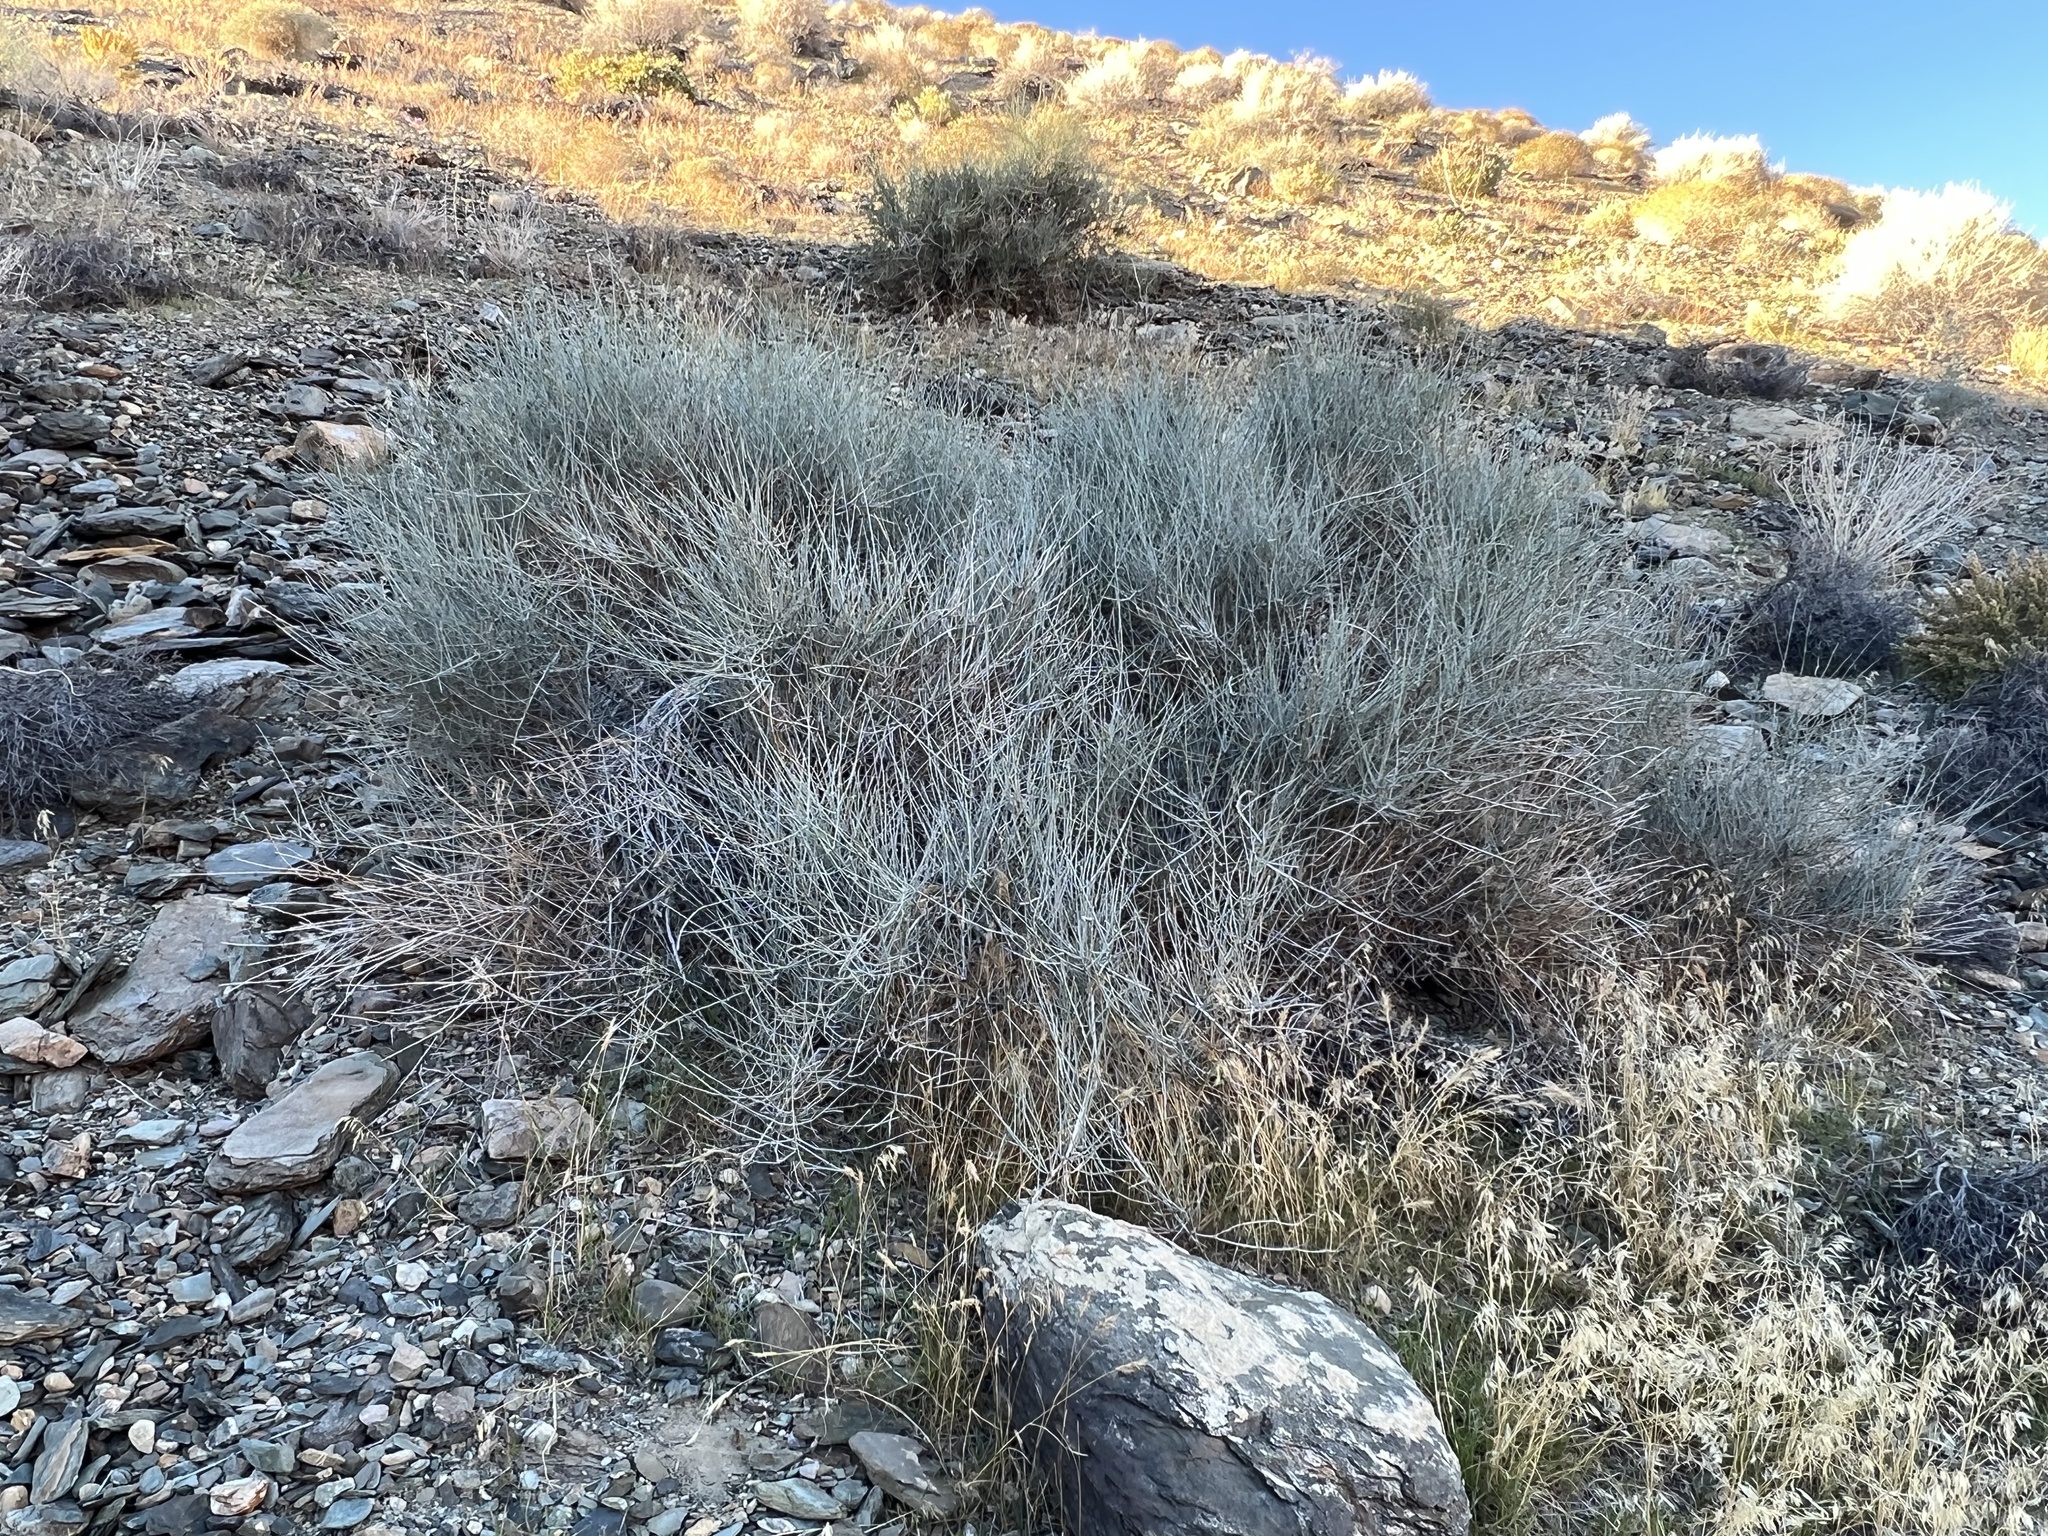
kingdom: Plantae
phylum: Tracheophyta
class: Gnetopsida
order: Ephedrales
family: Ephedraceae
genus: Ephedra
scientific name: Ephedra nevadensis
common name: Gray ephedra
